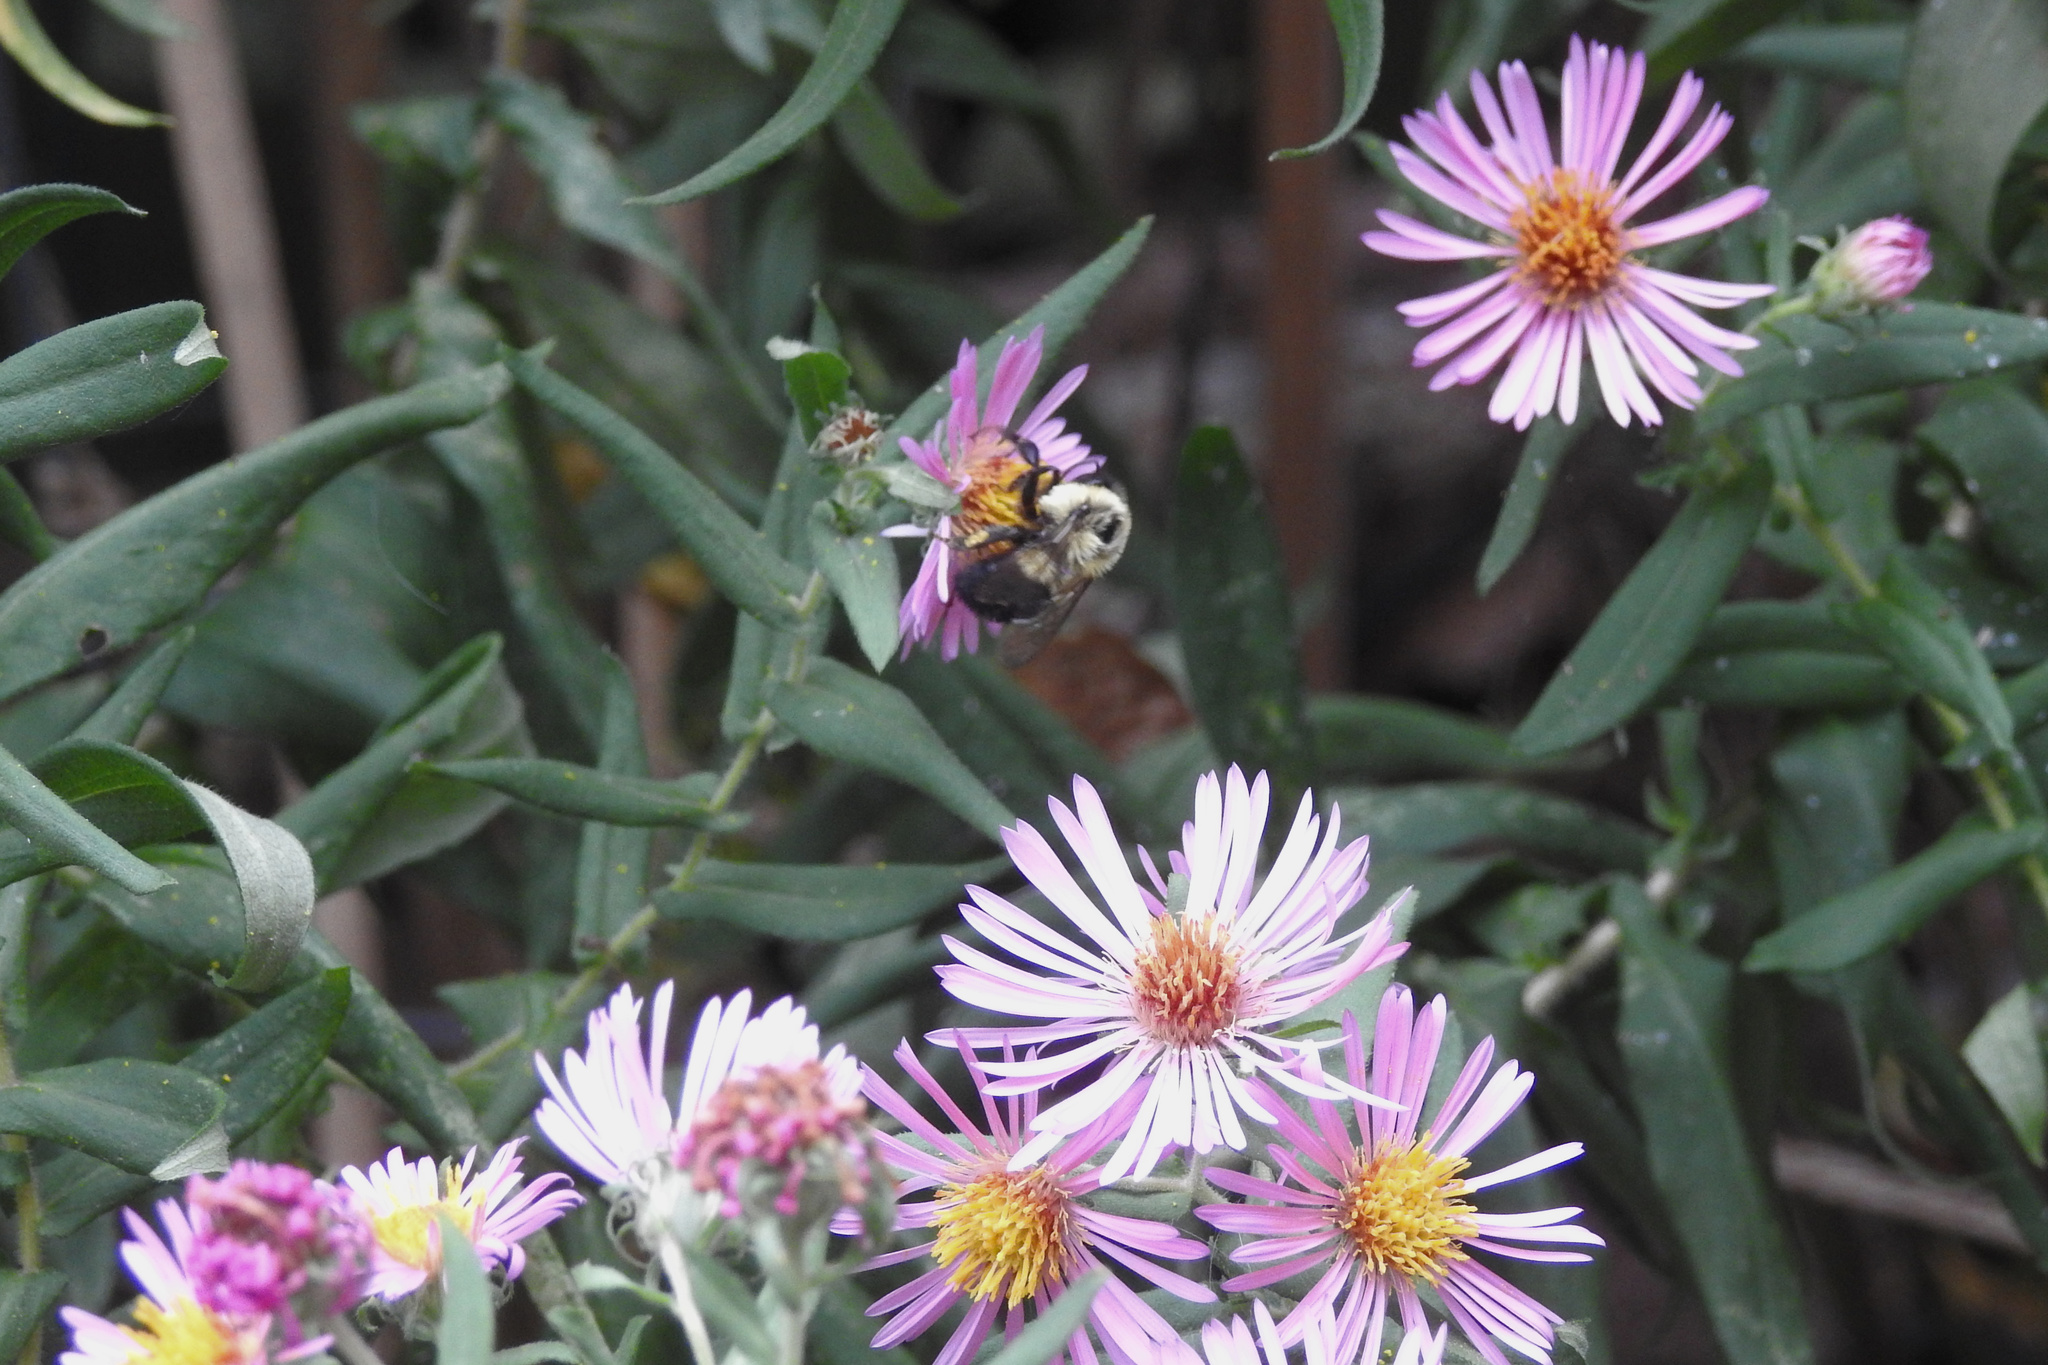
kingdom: Animalia
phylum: Arthropoda
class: Insecta
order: Hymenoptera
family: Apidae
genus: Bombus
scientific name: Bombus impatiens
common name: Common eastern bumble bee
